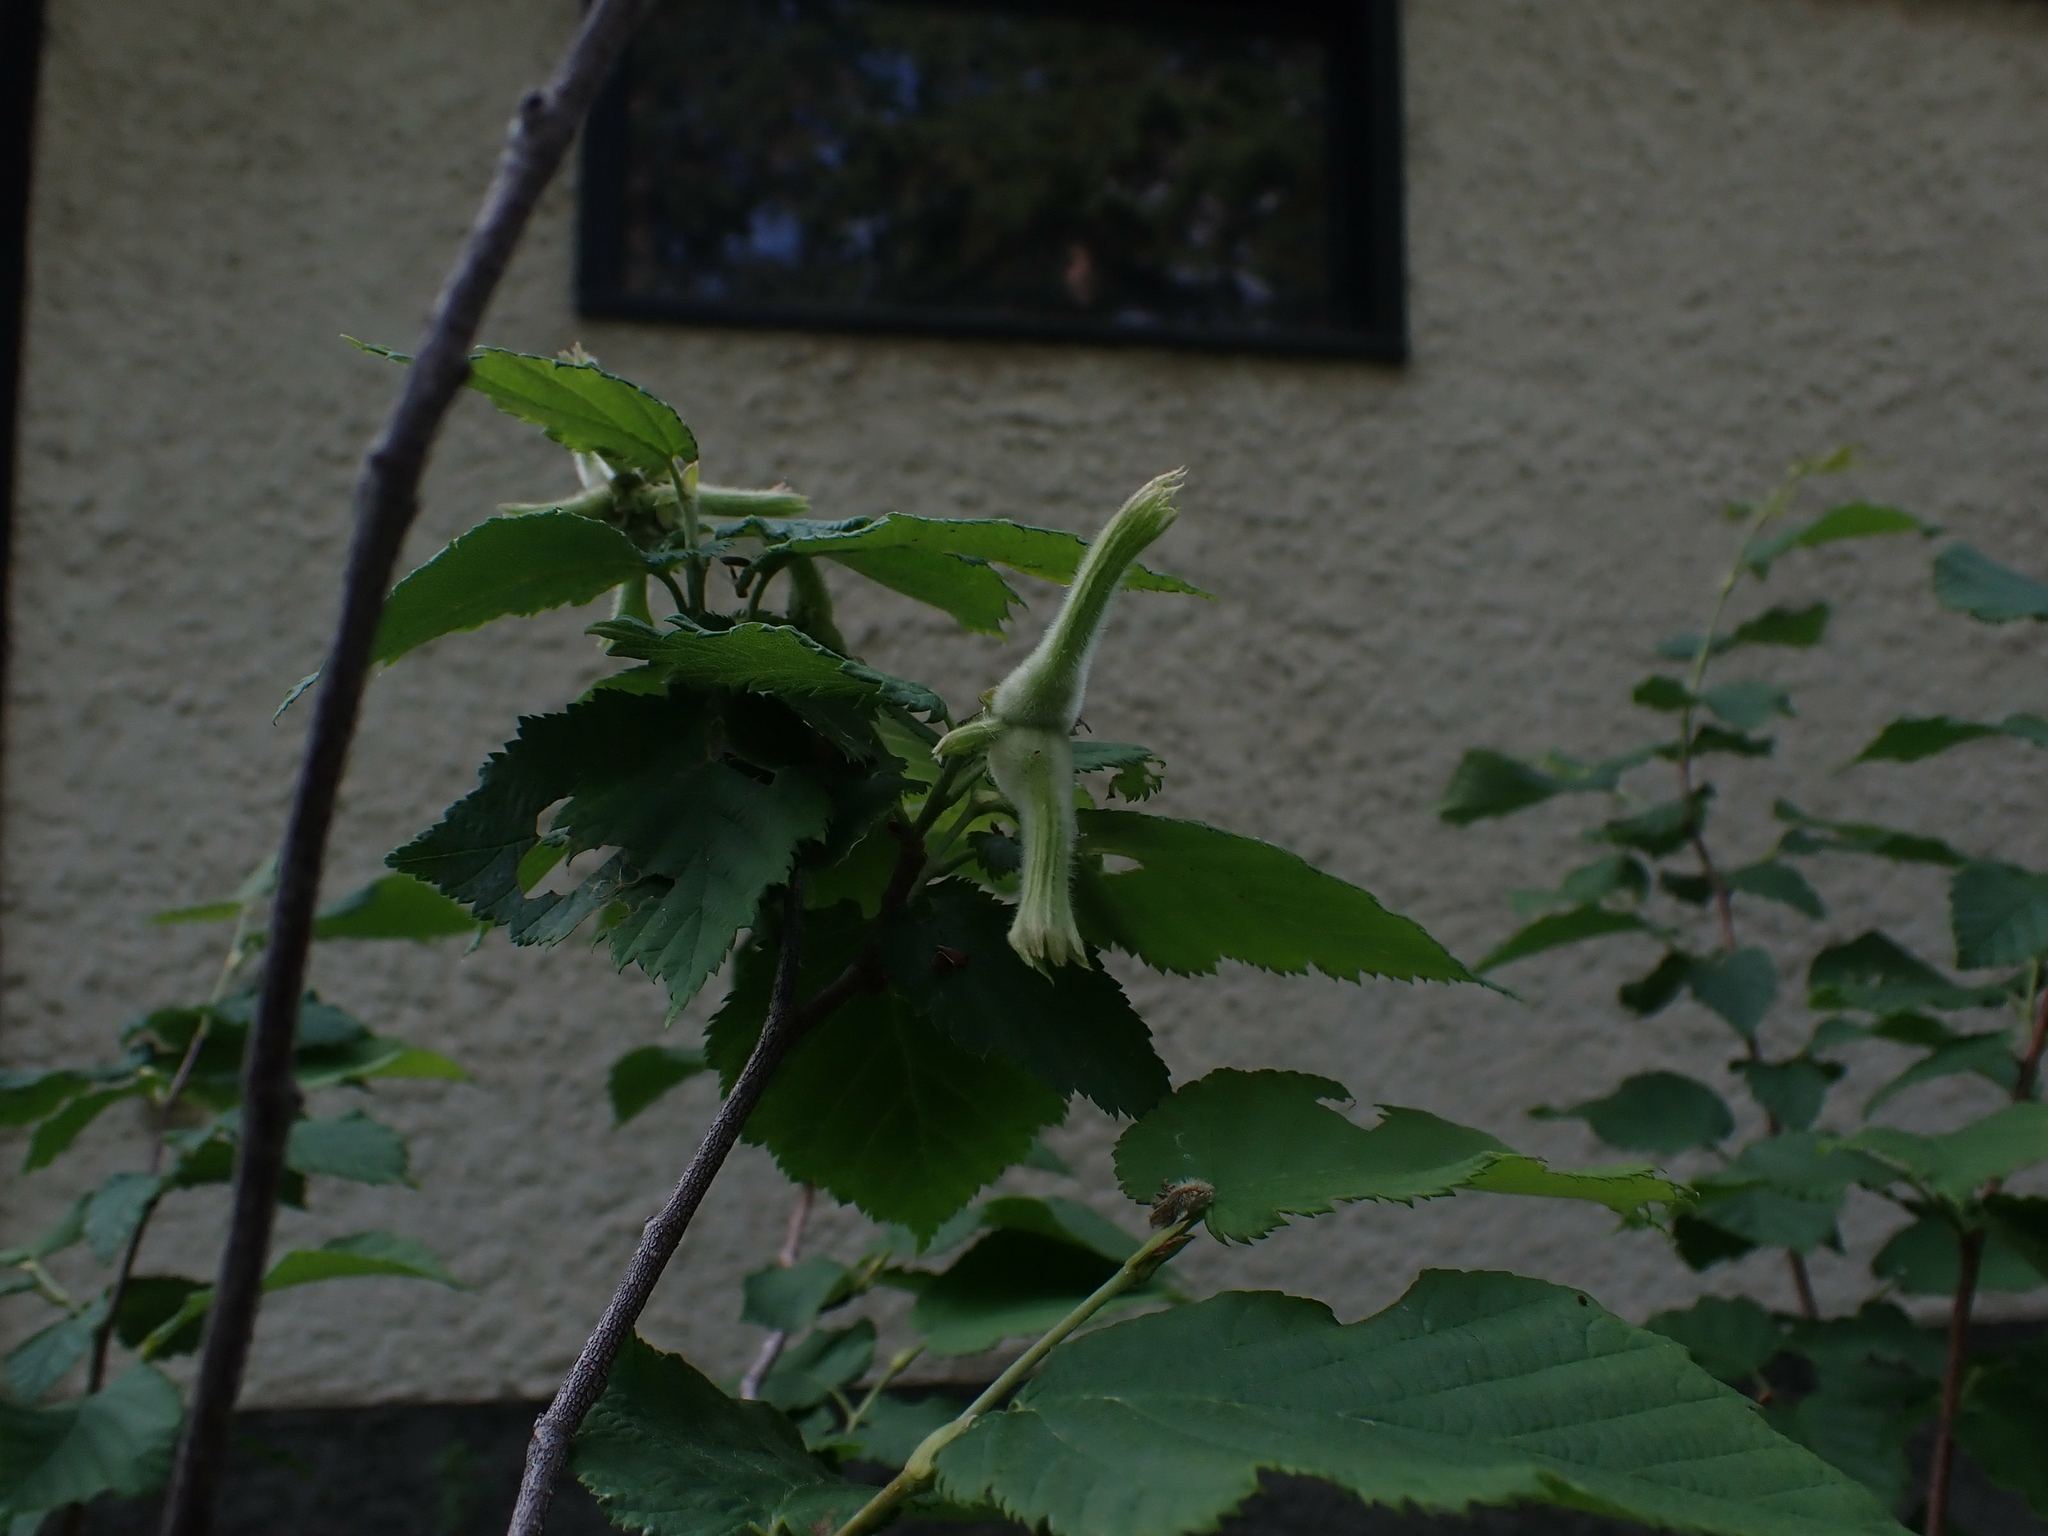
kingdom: Plantae
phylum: Tracheophyta
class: Magnoliopsida
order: Fagales
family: Betulaceae
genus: Corylus
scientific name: Corylus cornuta
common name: Beaked hazel
